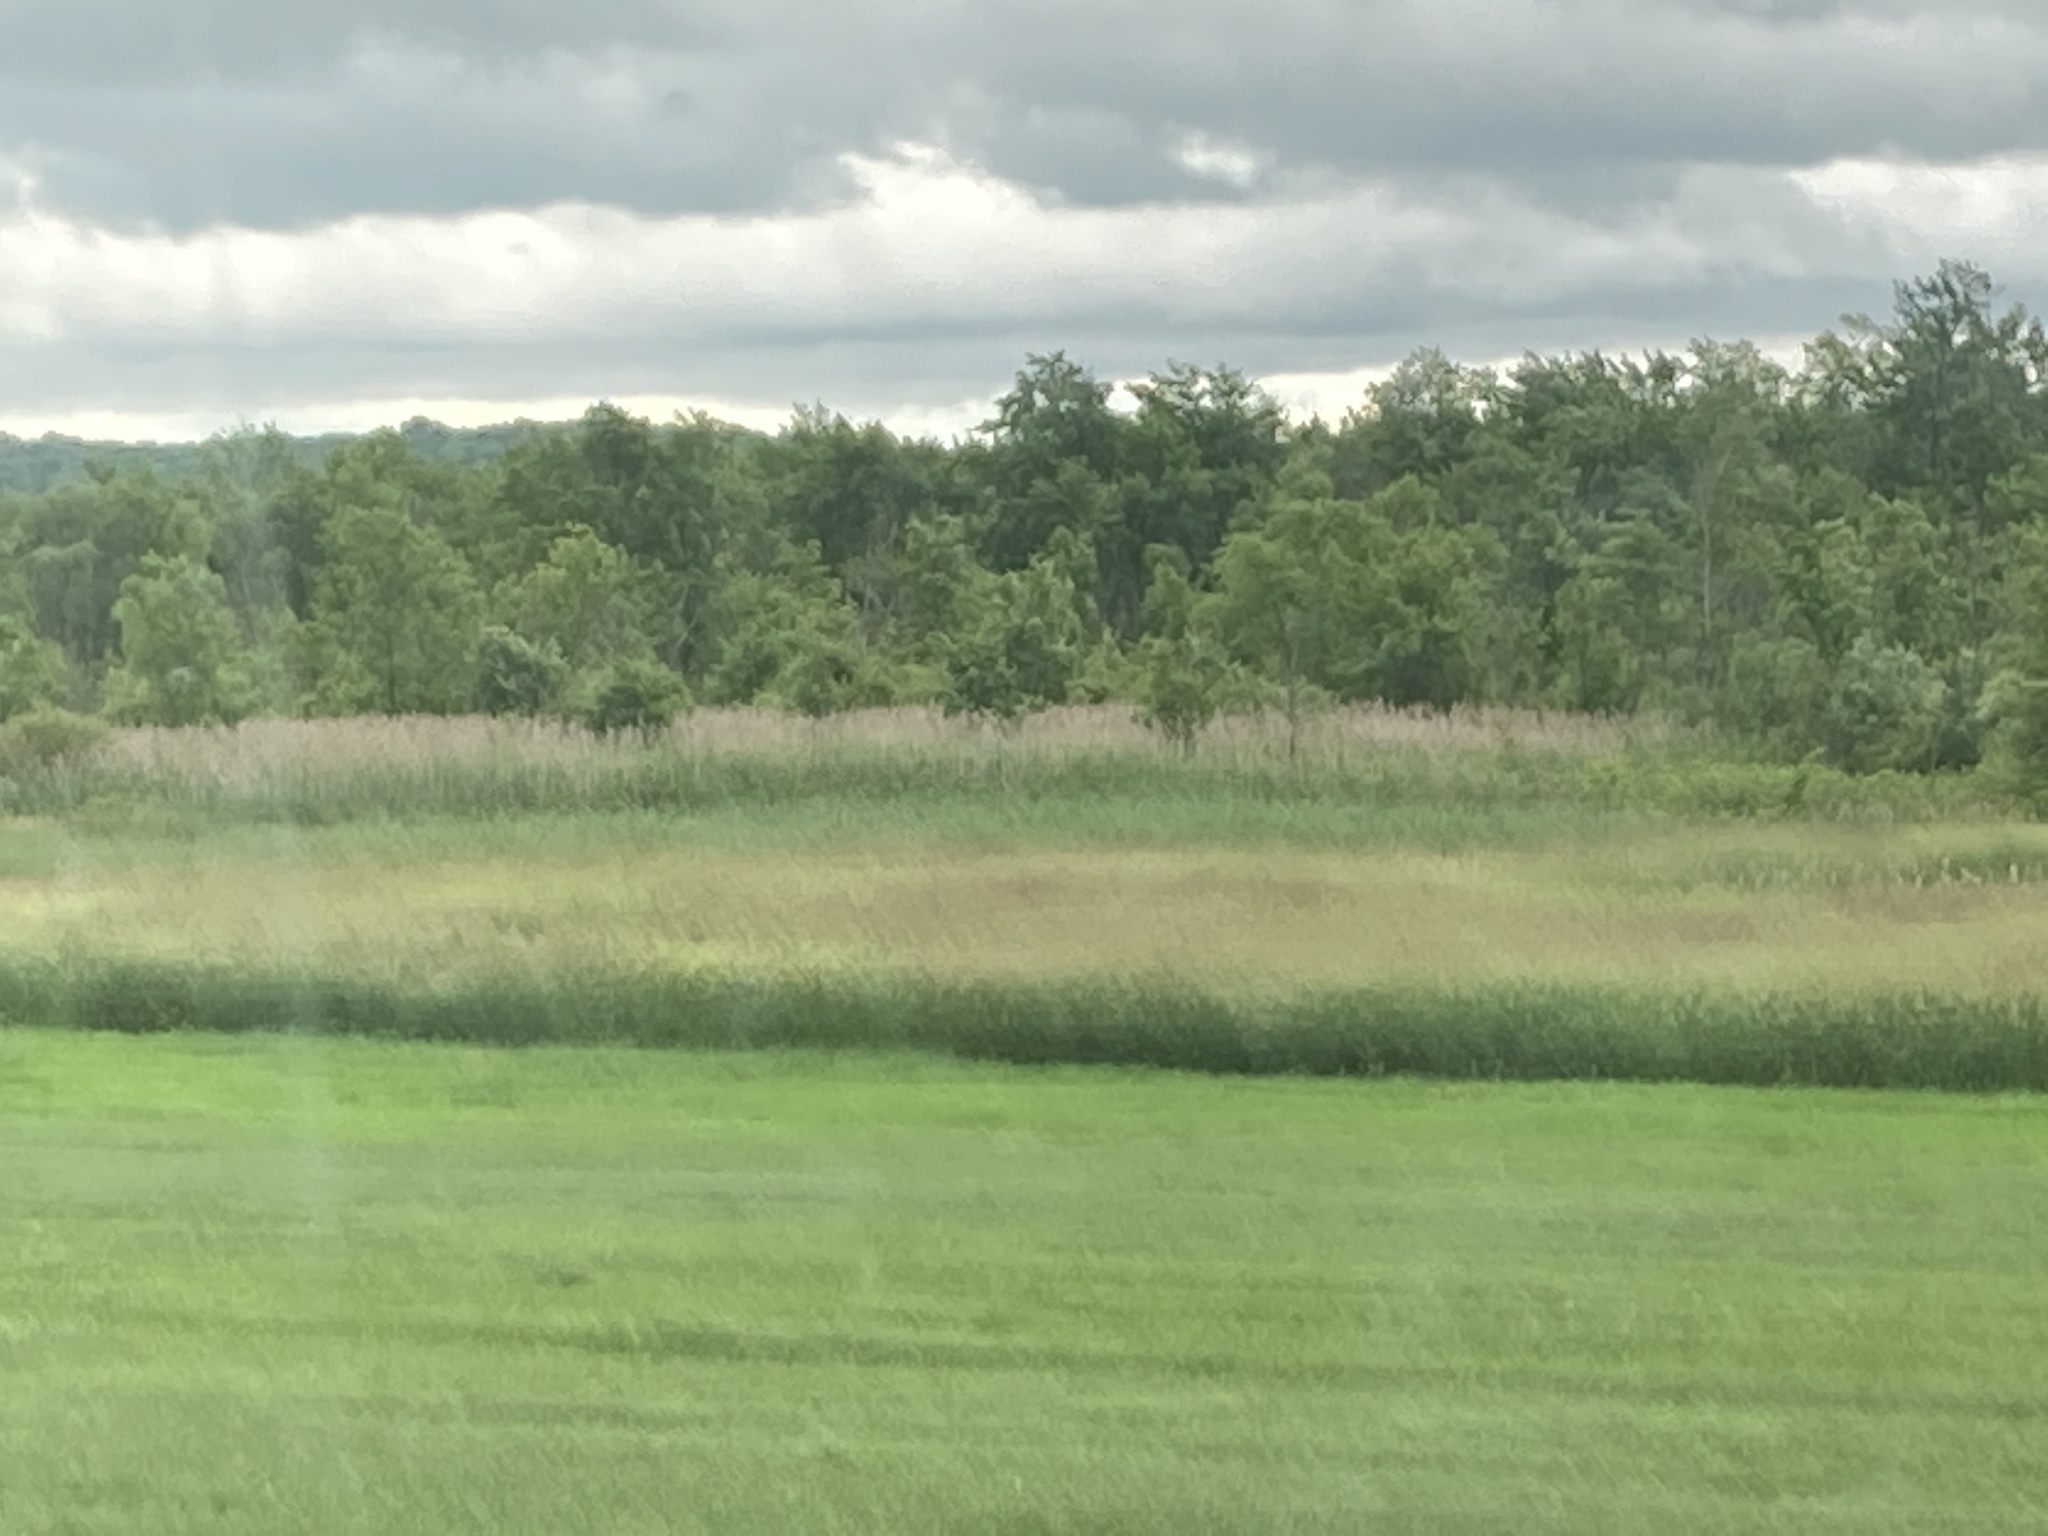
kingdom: Plantae
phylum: Tracheophyta
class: Liliopsida
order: Poales
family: Poaceae
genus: Phragmites
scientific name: Phragmites australis
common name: Common reed
